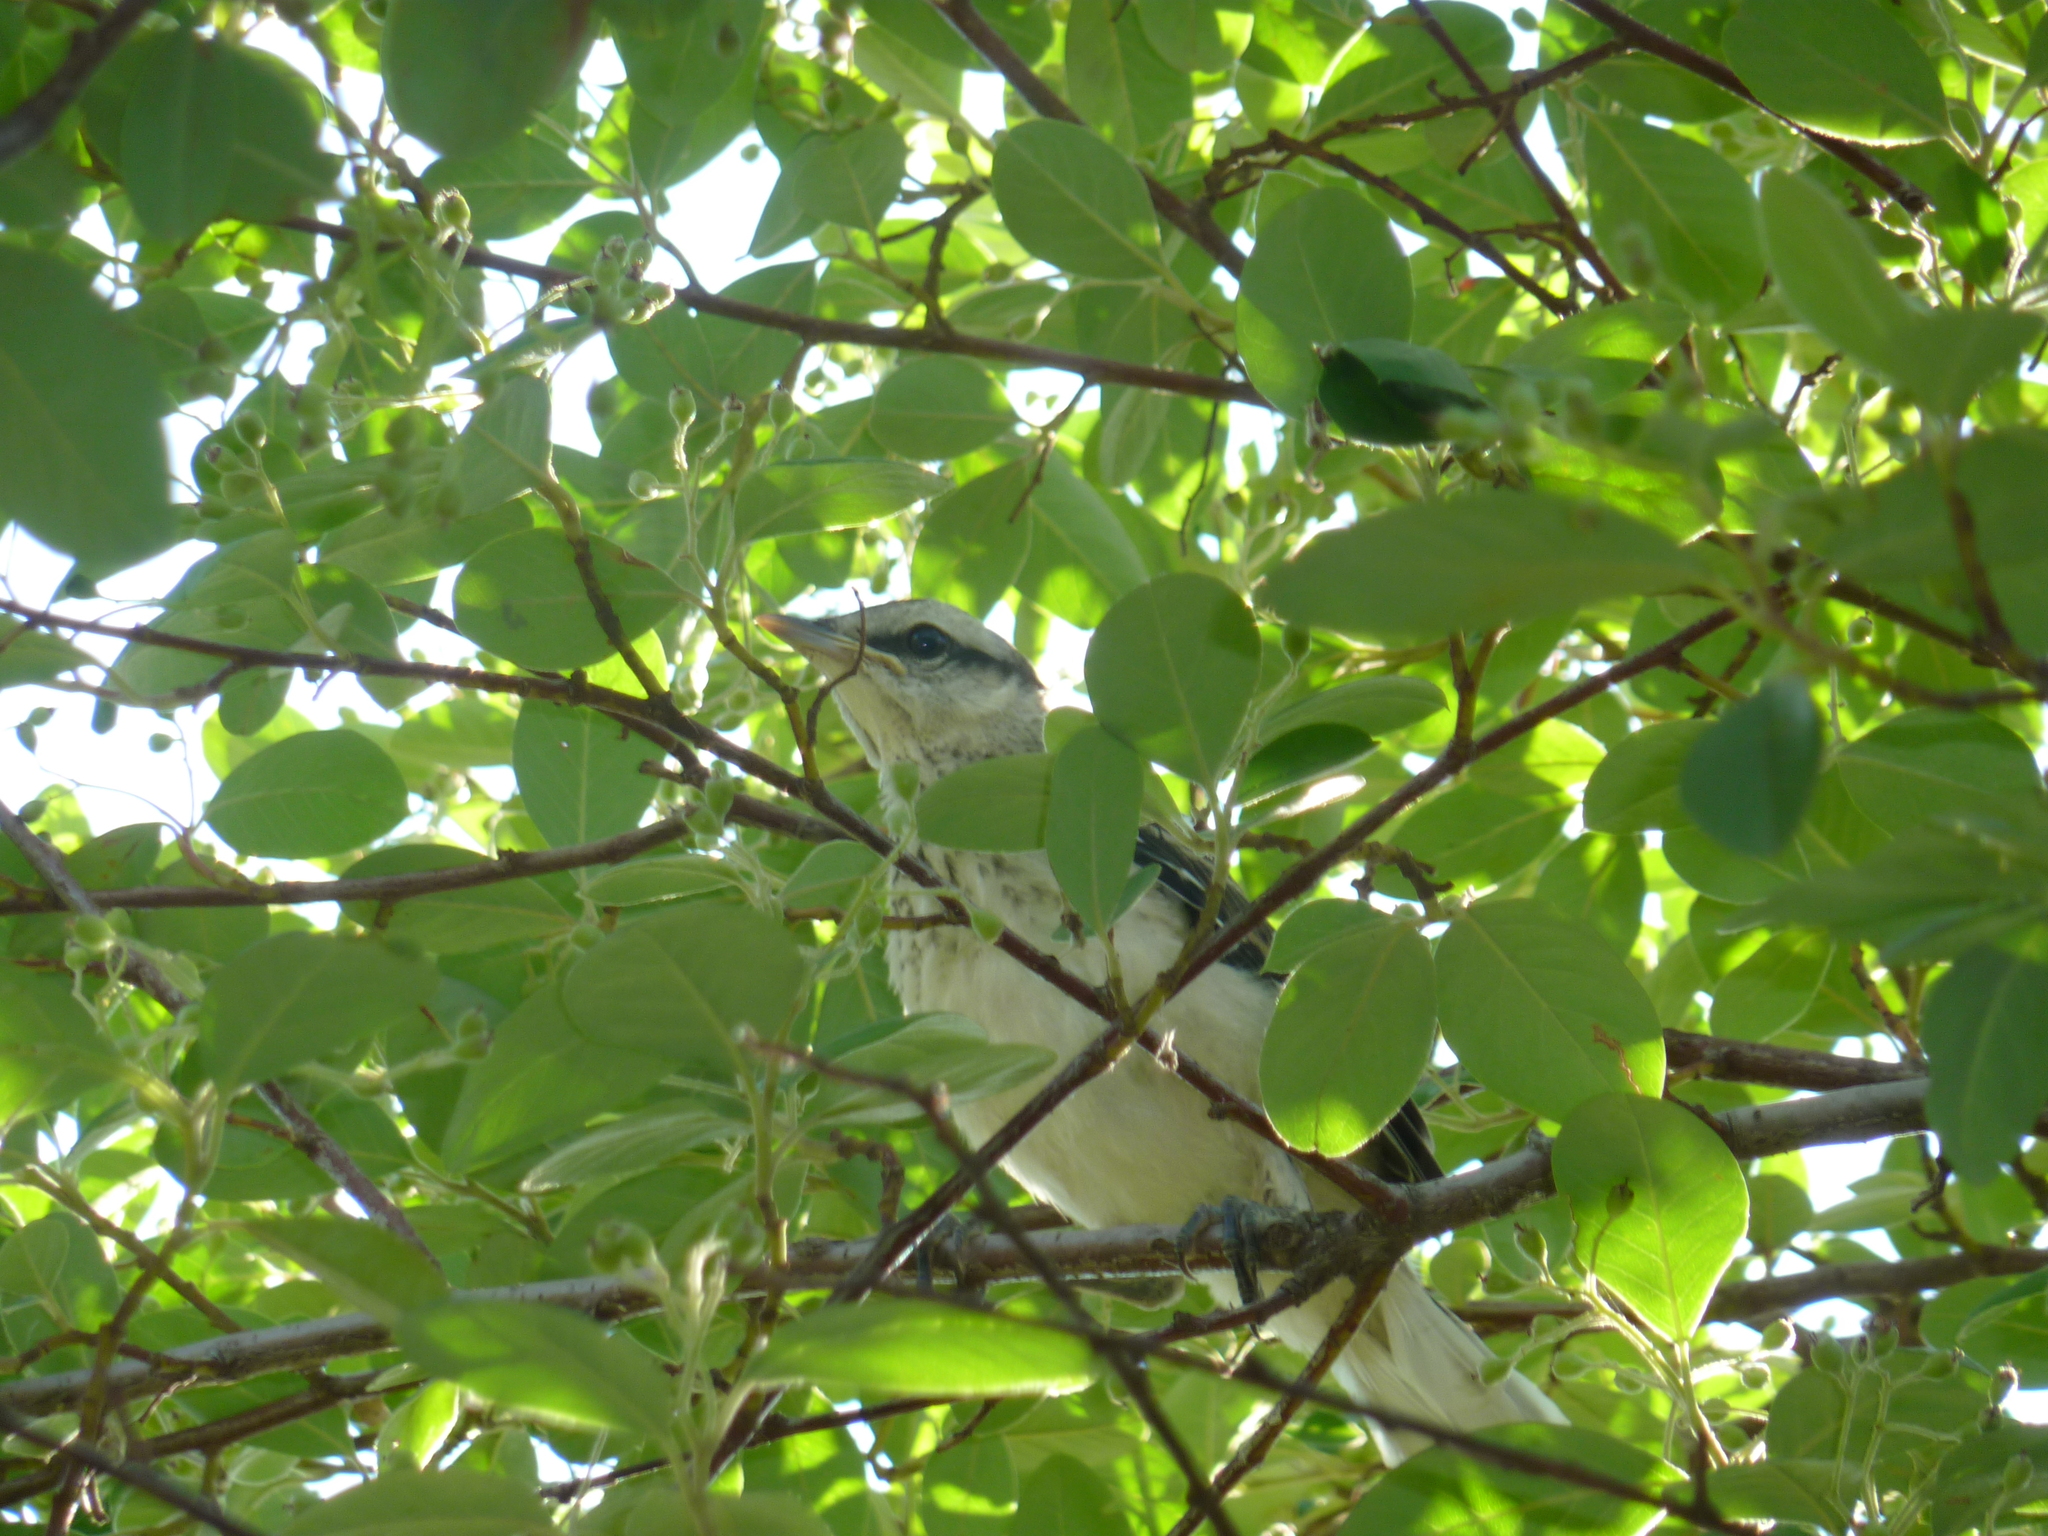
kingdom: Animalia
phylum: Chordata
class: Aves
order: Passeriformes
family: Mimidae
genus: Mimus
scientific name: Mimus saturninus
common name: Chalk-browed mockingbird
